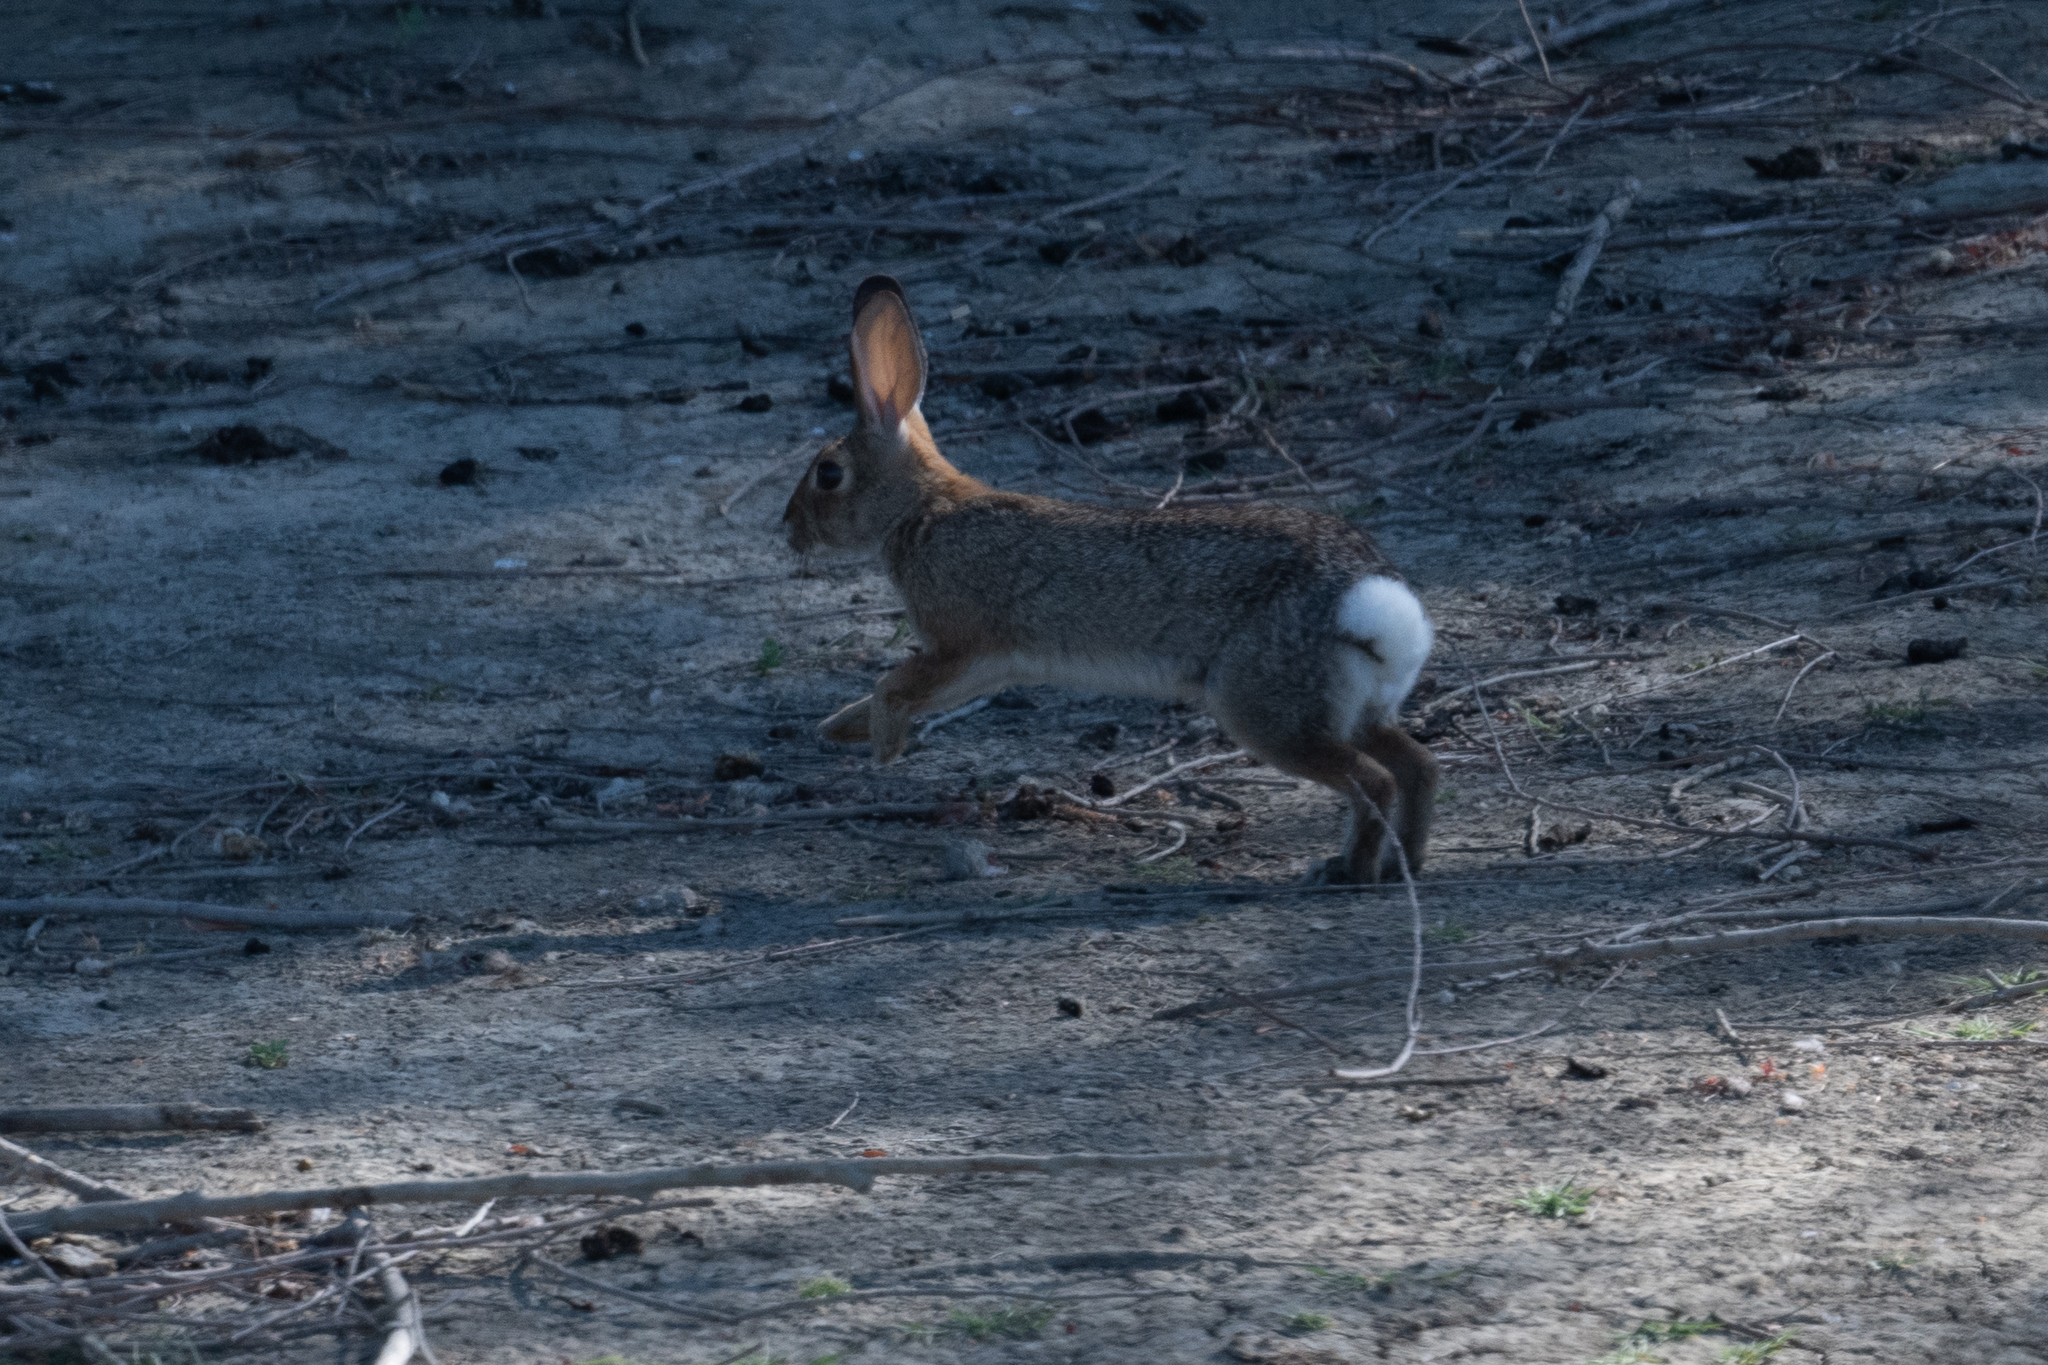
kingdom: Animalia
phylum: Chordata
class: Mammalia
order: Lagomorpha
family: Leporidae
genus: Sylvilagus
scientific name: Sylvilagus audubonii
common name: Desert cottontail
